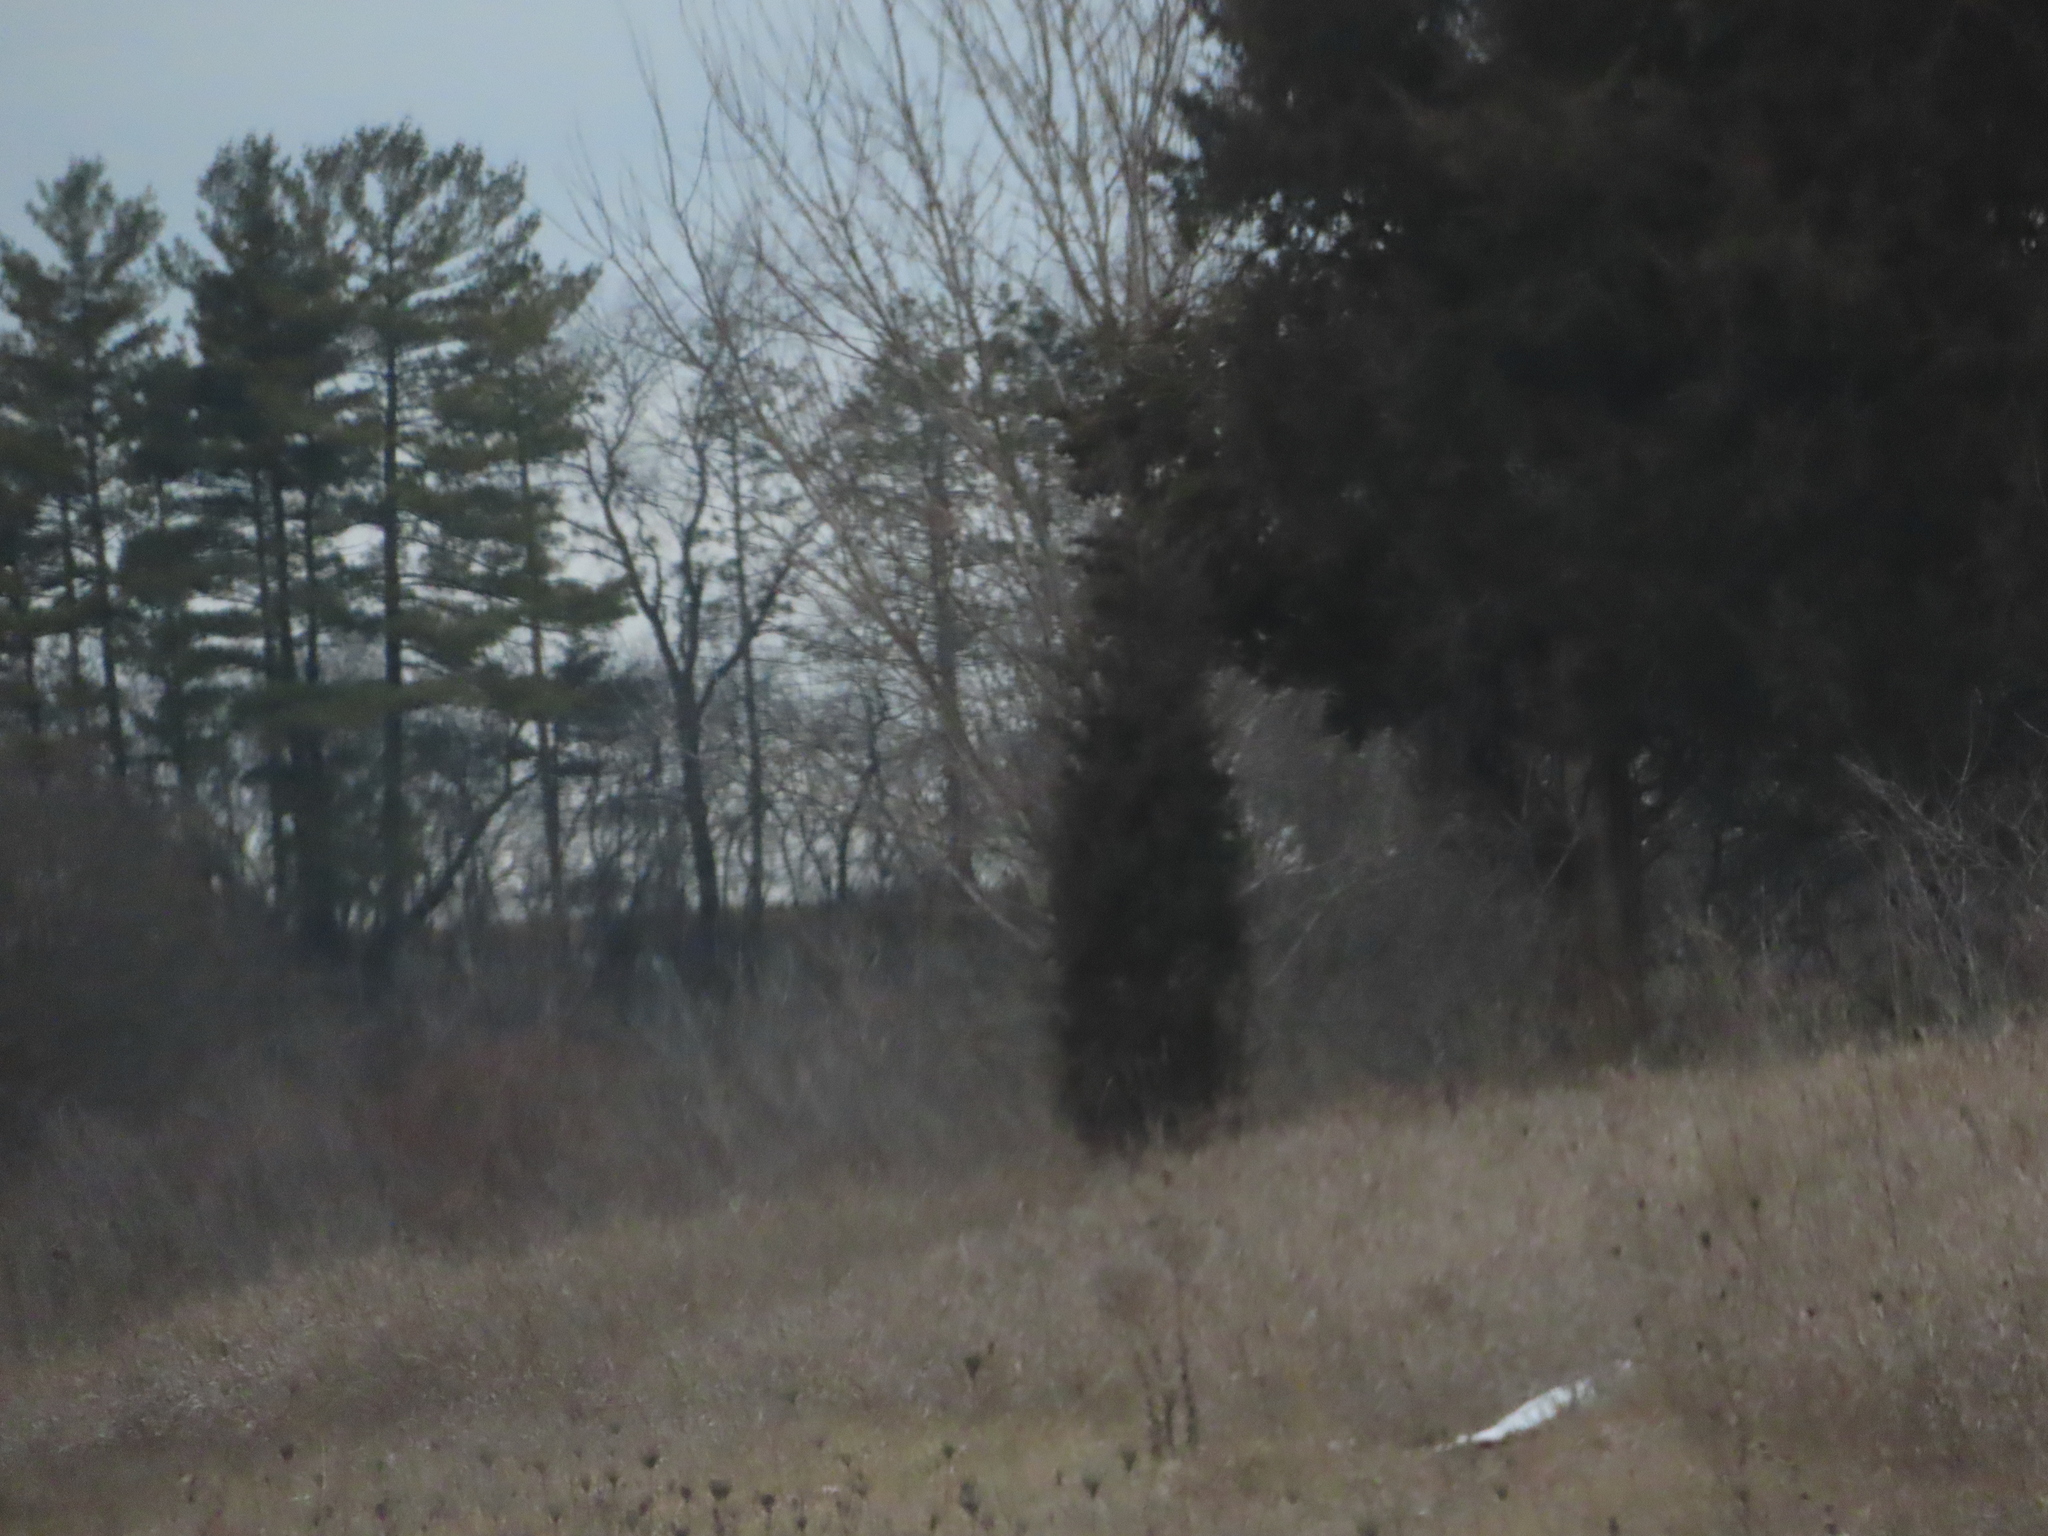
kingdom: Plantae
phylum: Tracheophyta
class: Pinopsida
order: Pinales
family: Cupressaceae
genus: Juniperus
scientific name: Juniperus virginiana
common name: Red juniper
